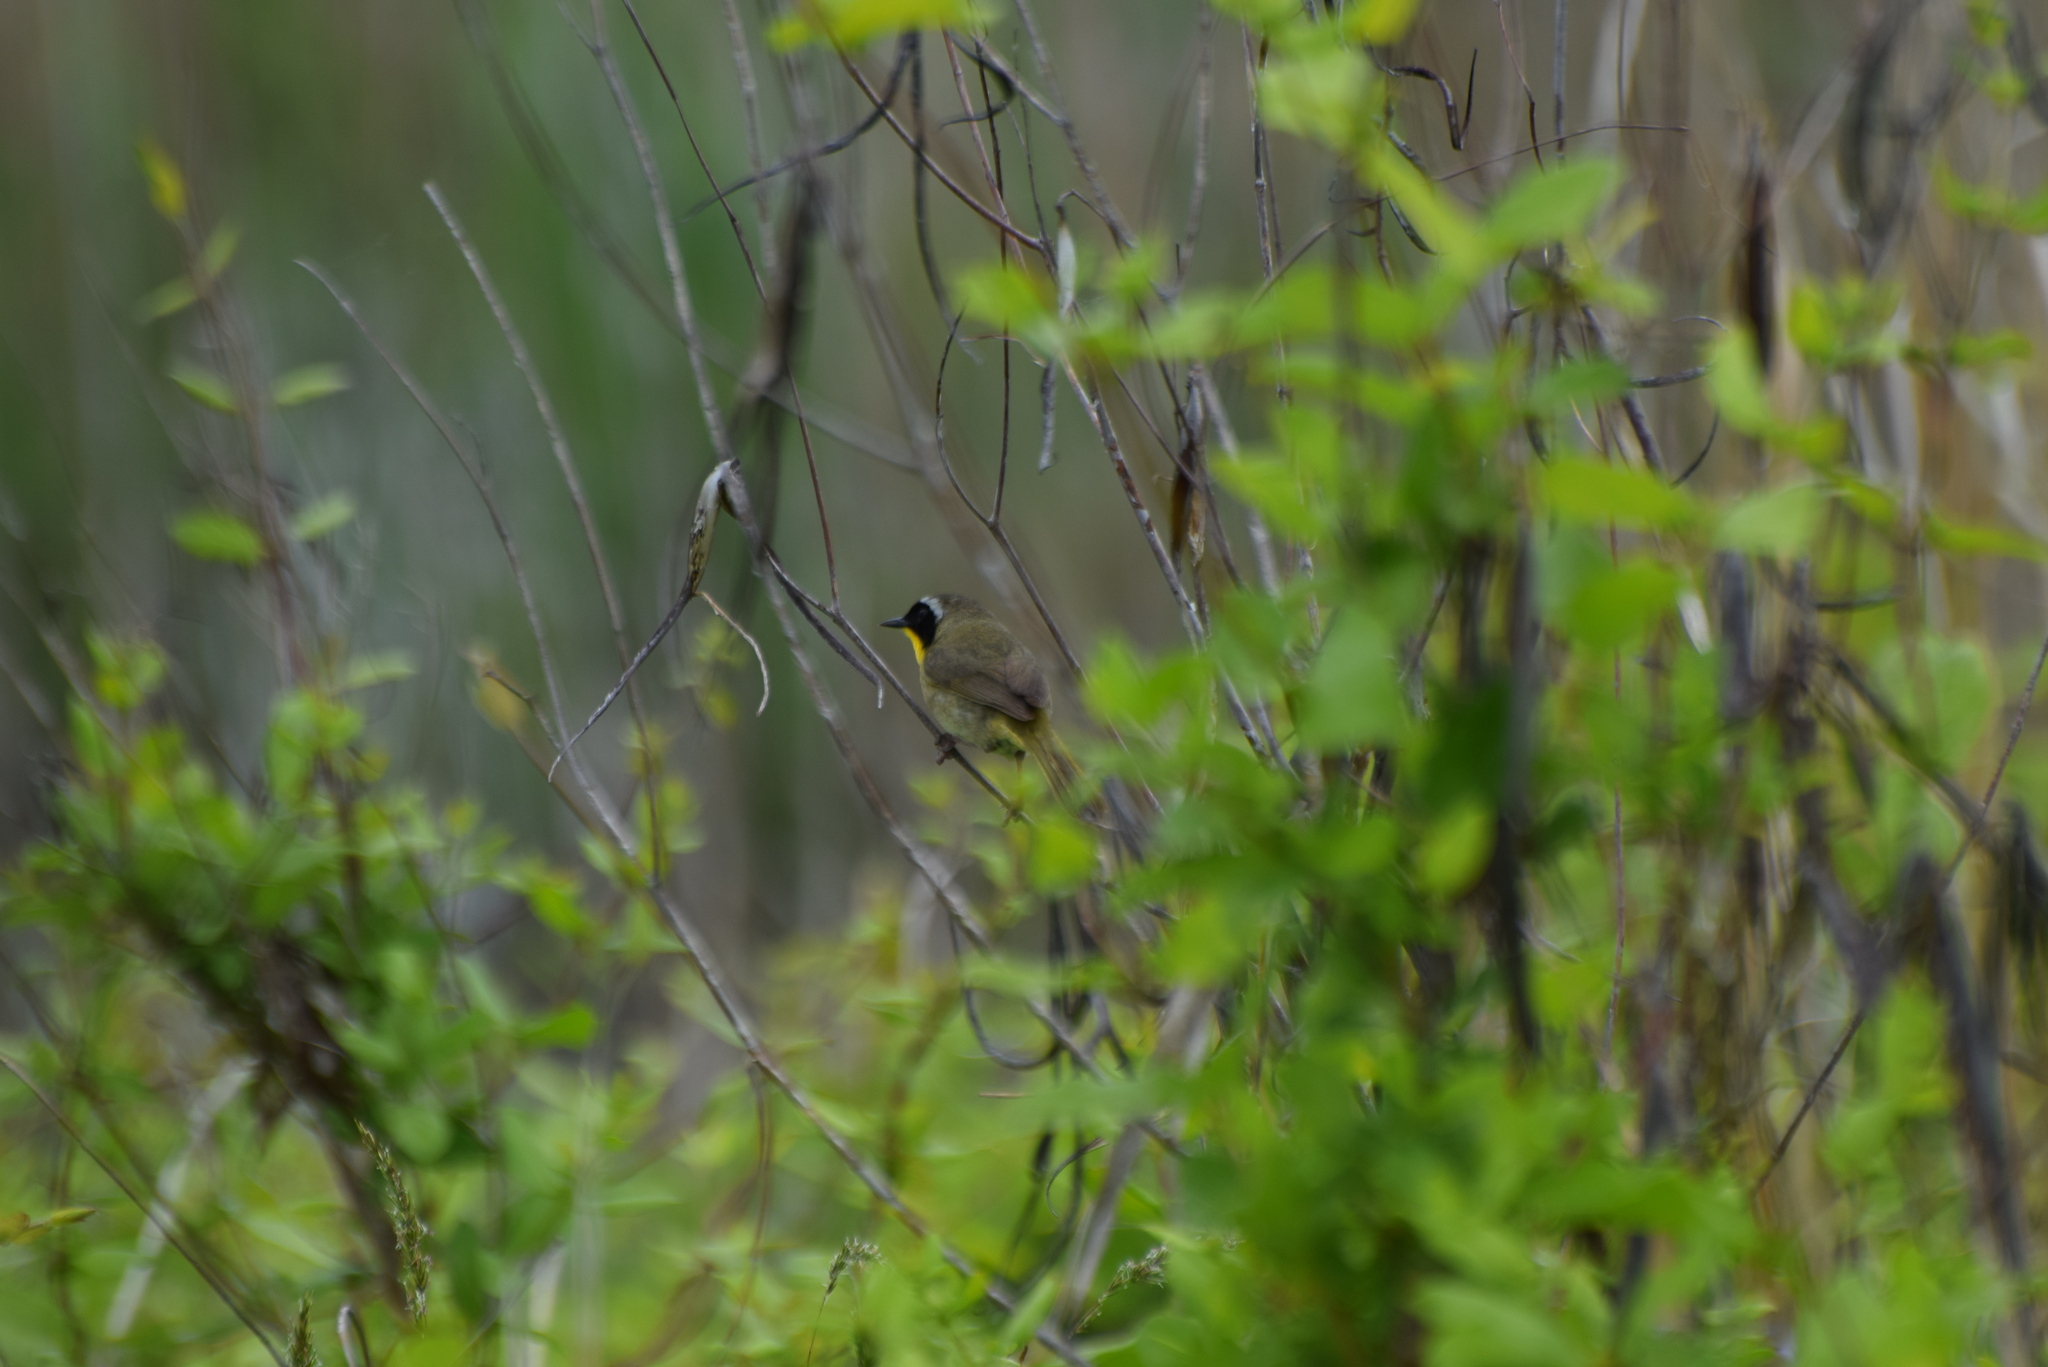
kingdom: Animalia
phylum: Chordata
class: Aves
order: Passeriformes
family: Parulidae
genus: Geothlypis
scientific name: Geothlypis trichas
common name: Common yellowthroat
